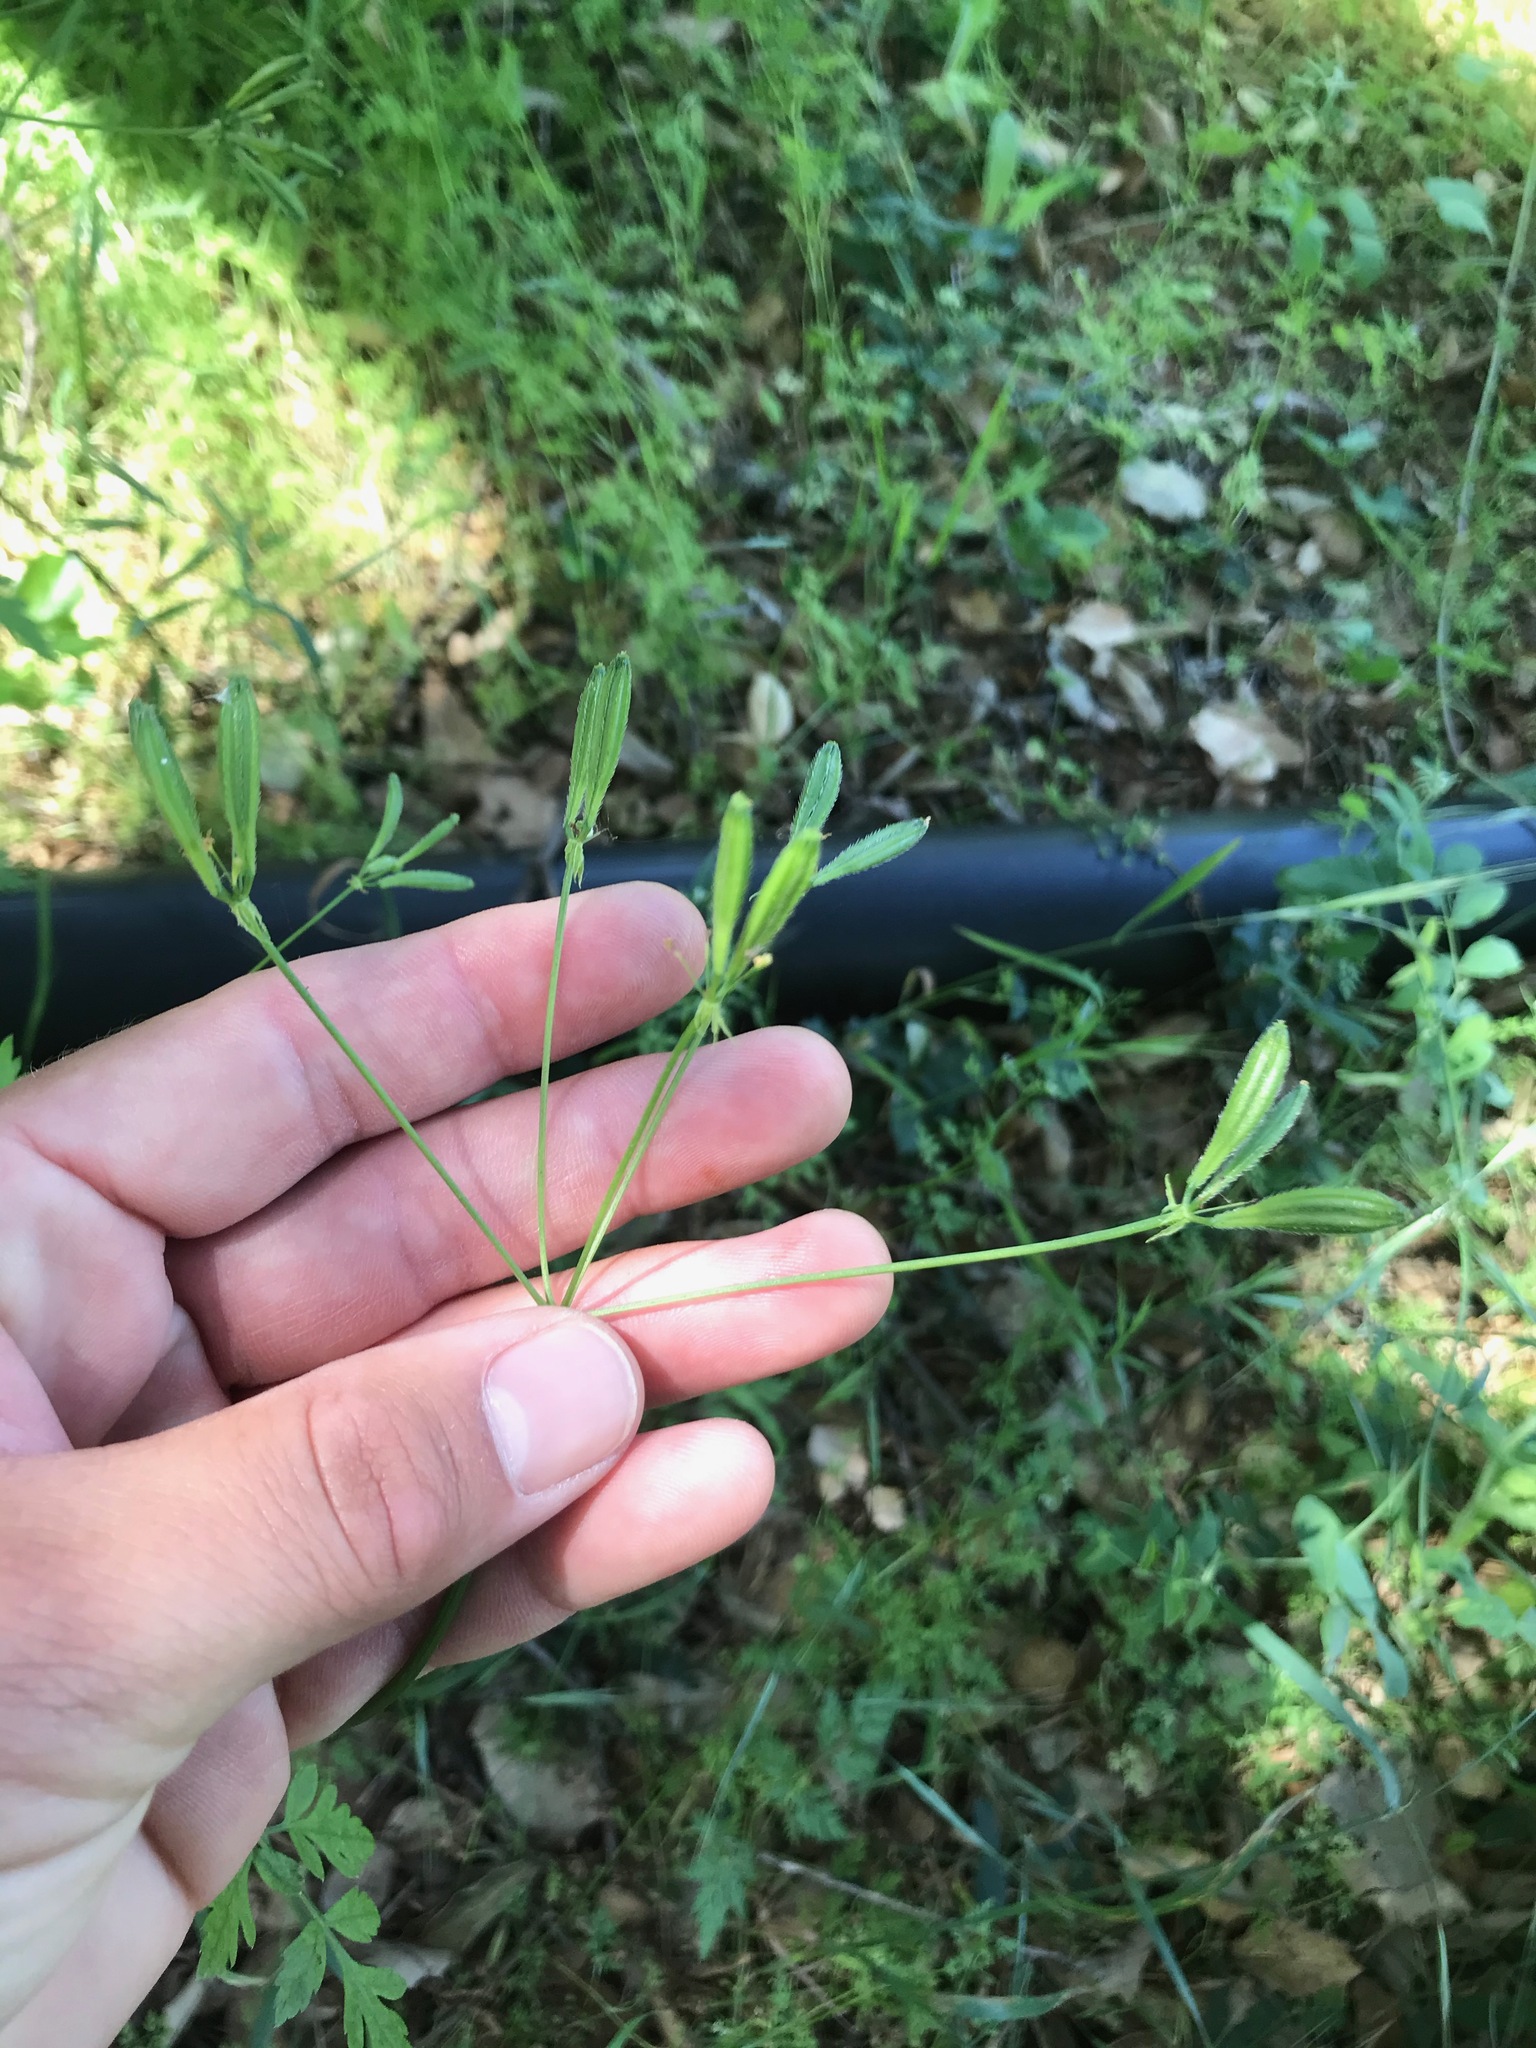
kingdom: Plantae
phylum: Tracheophyta
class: Magnoliopsida
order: Apiales
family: Apiaceae
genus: Osmorhiza
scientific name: Osmorhiza brachypoda
